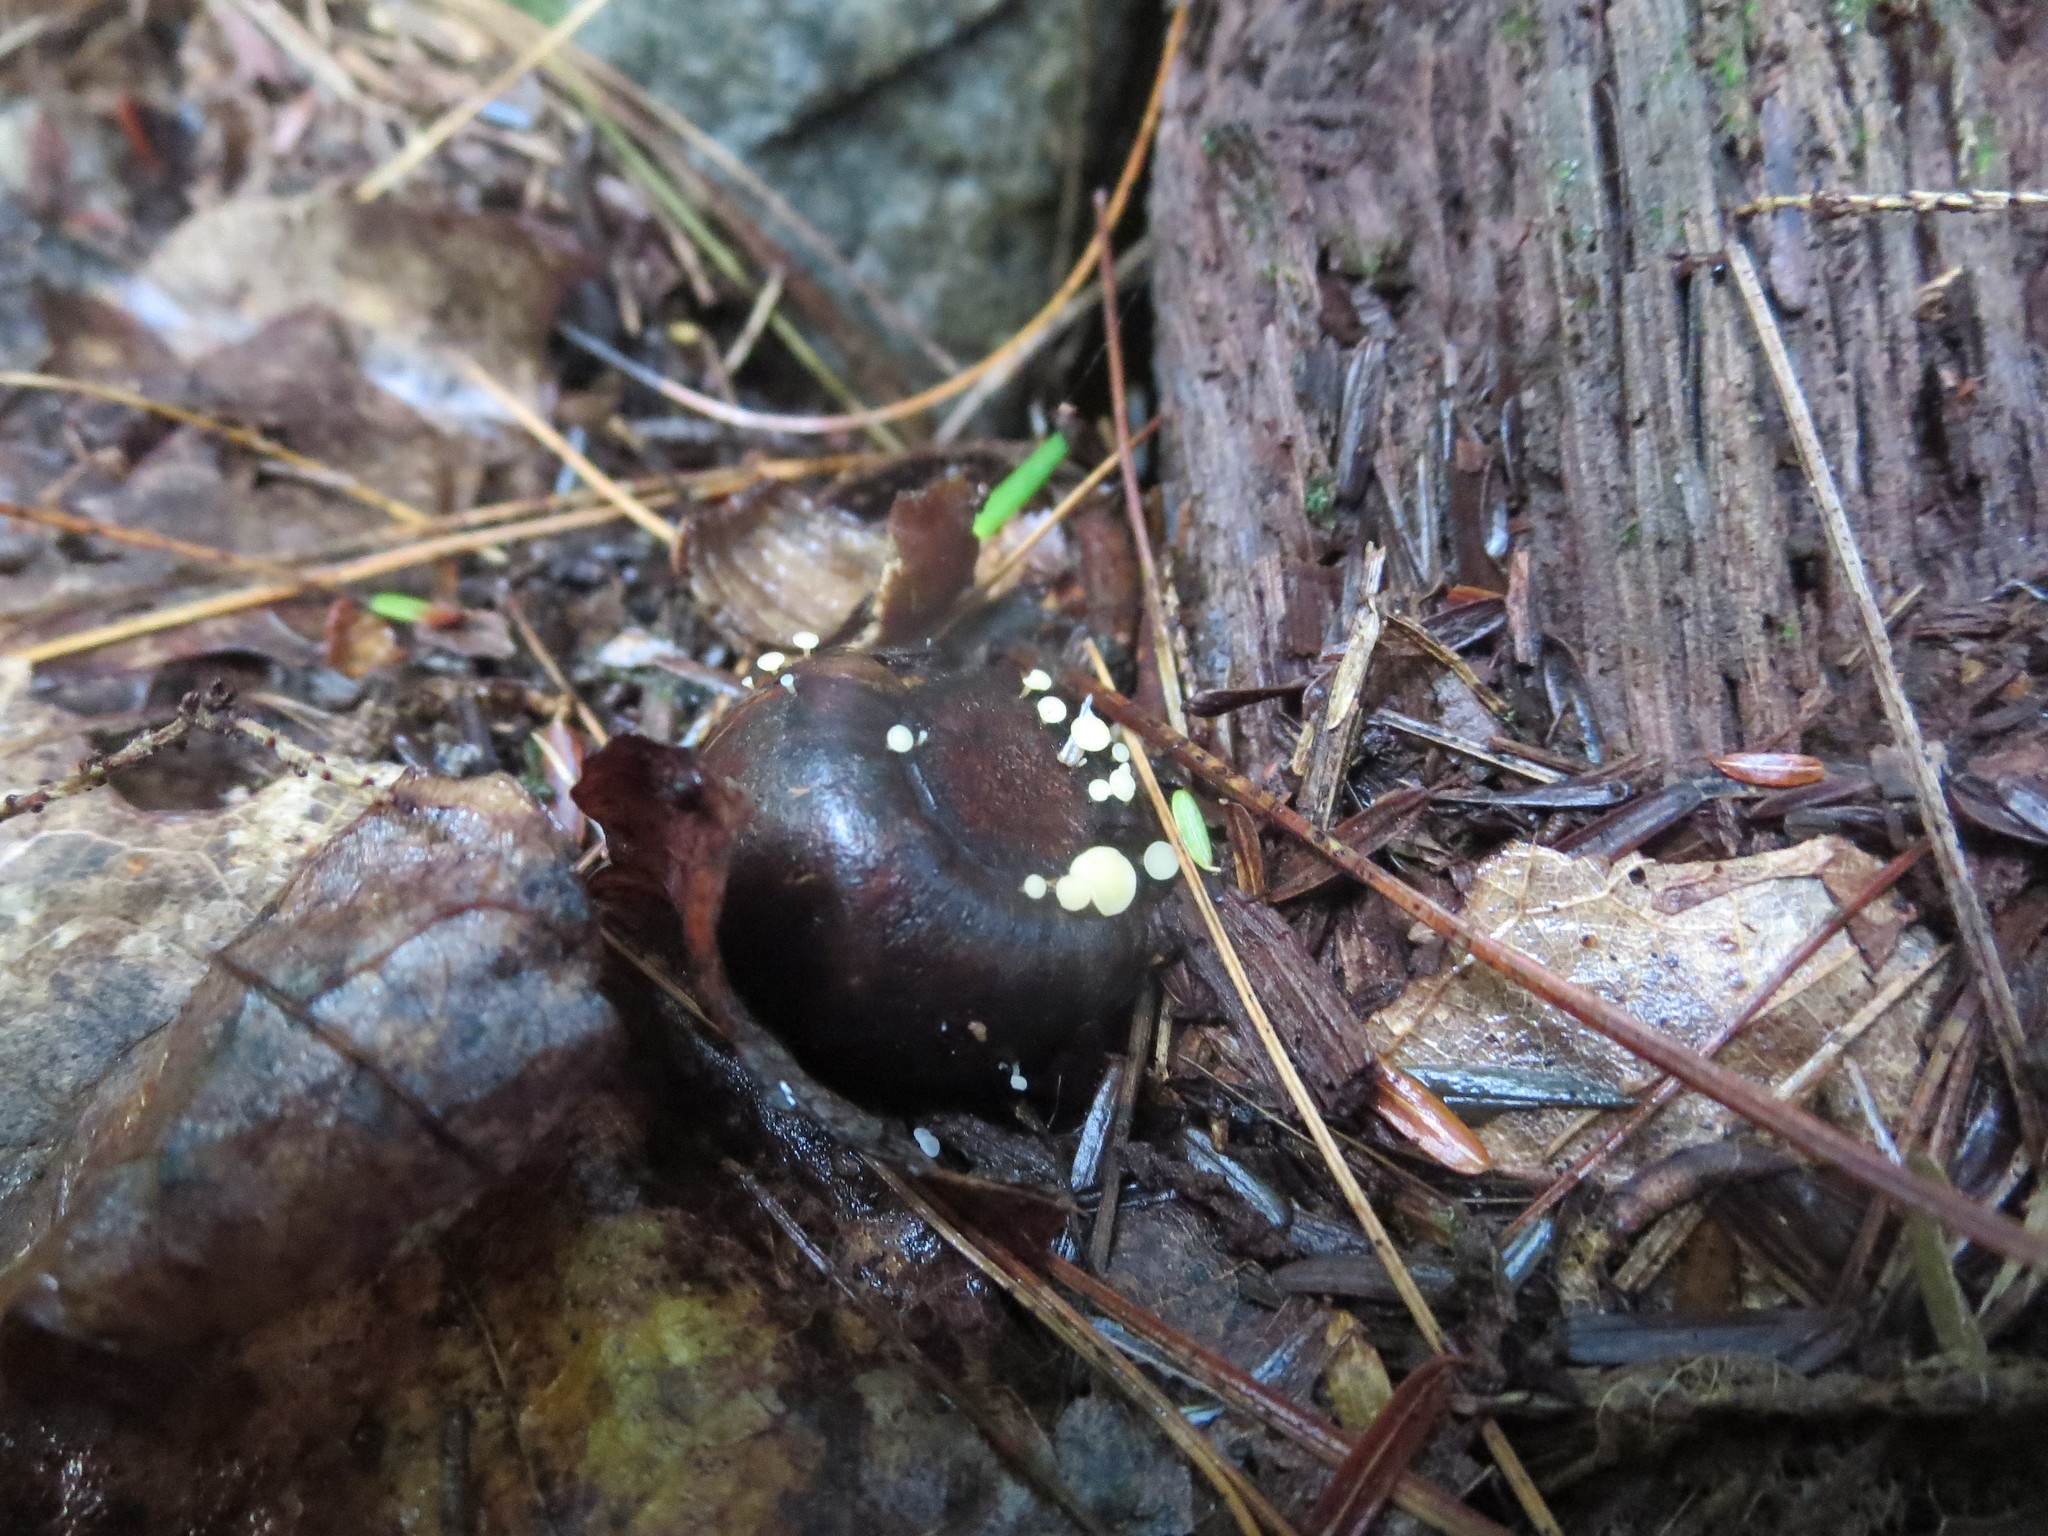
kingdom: Fungi
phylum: Ascomycota
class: Leotiomycetes
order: Helotiales
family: Helotiaceae
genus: Hymenoscyphus
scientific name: Hymenoscyphus fructigenus
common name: Nut disco
